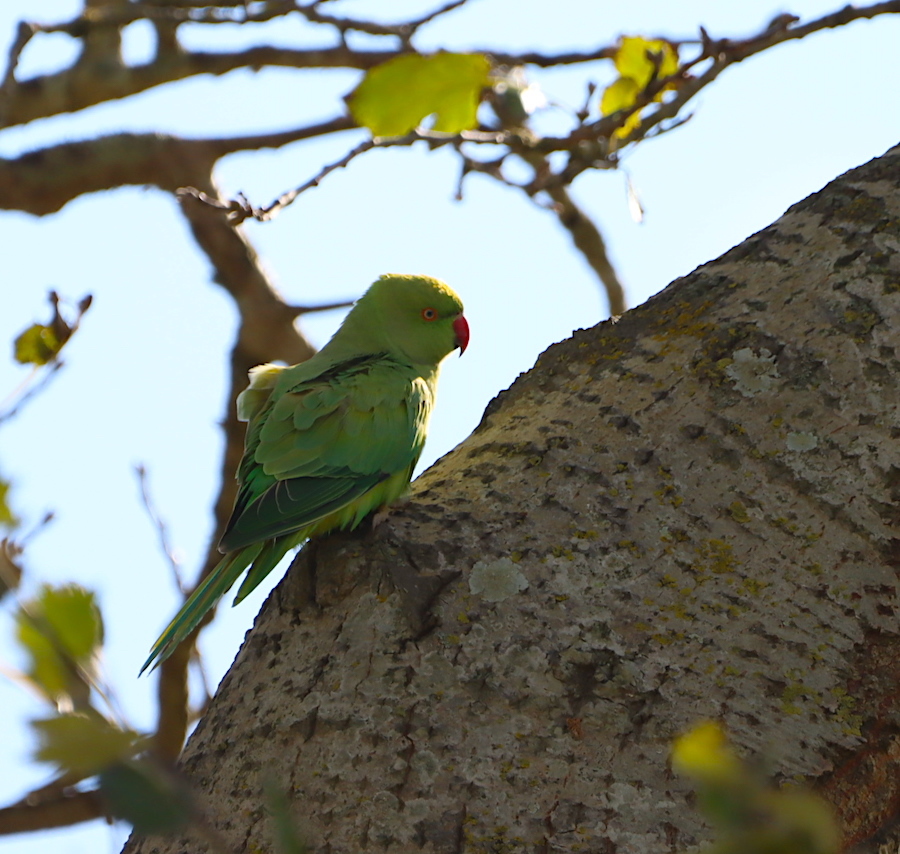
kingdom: Animalia
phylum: Chordata
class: Aves
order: Psittaciformes
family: Psittacidae
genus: Psittacula
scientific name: Psittacula krameri
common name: Rose-ringed parakeet
